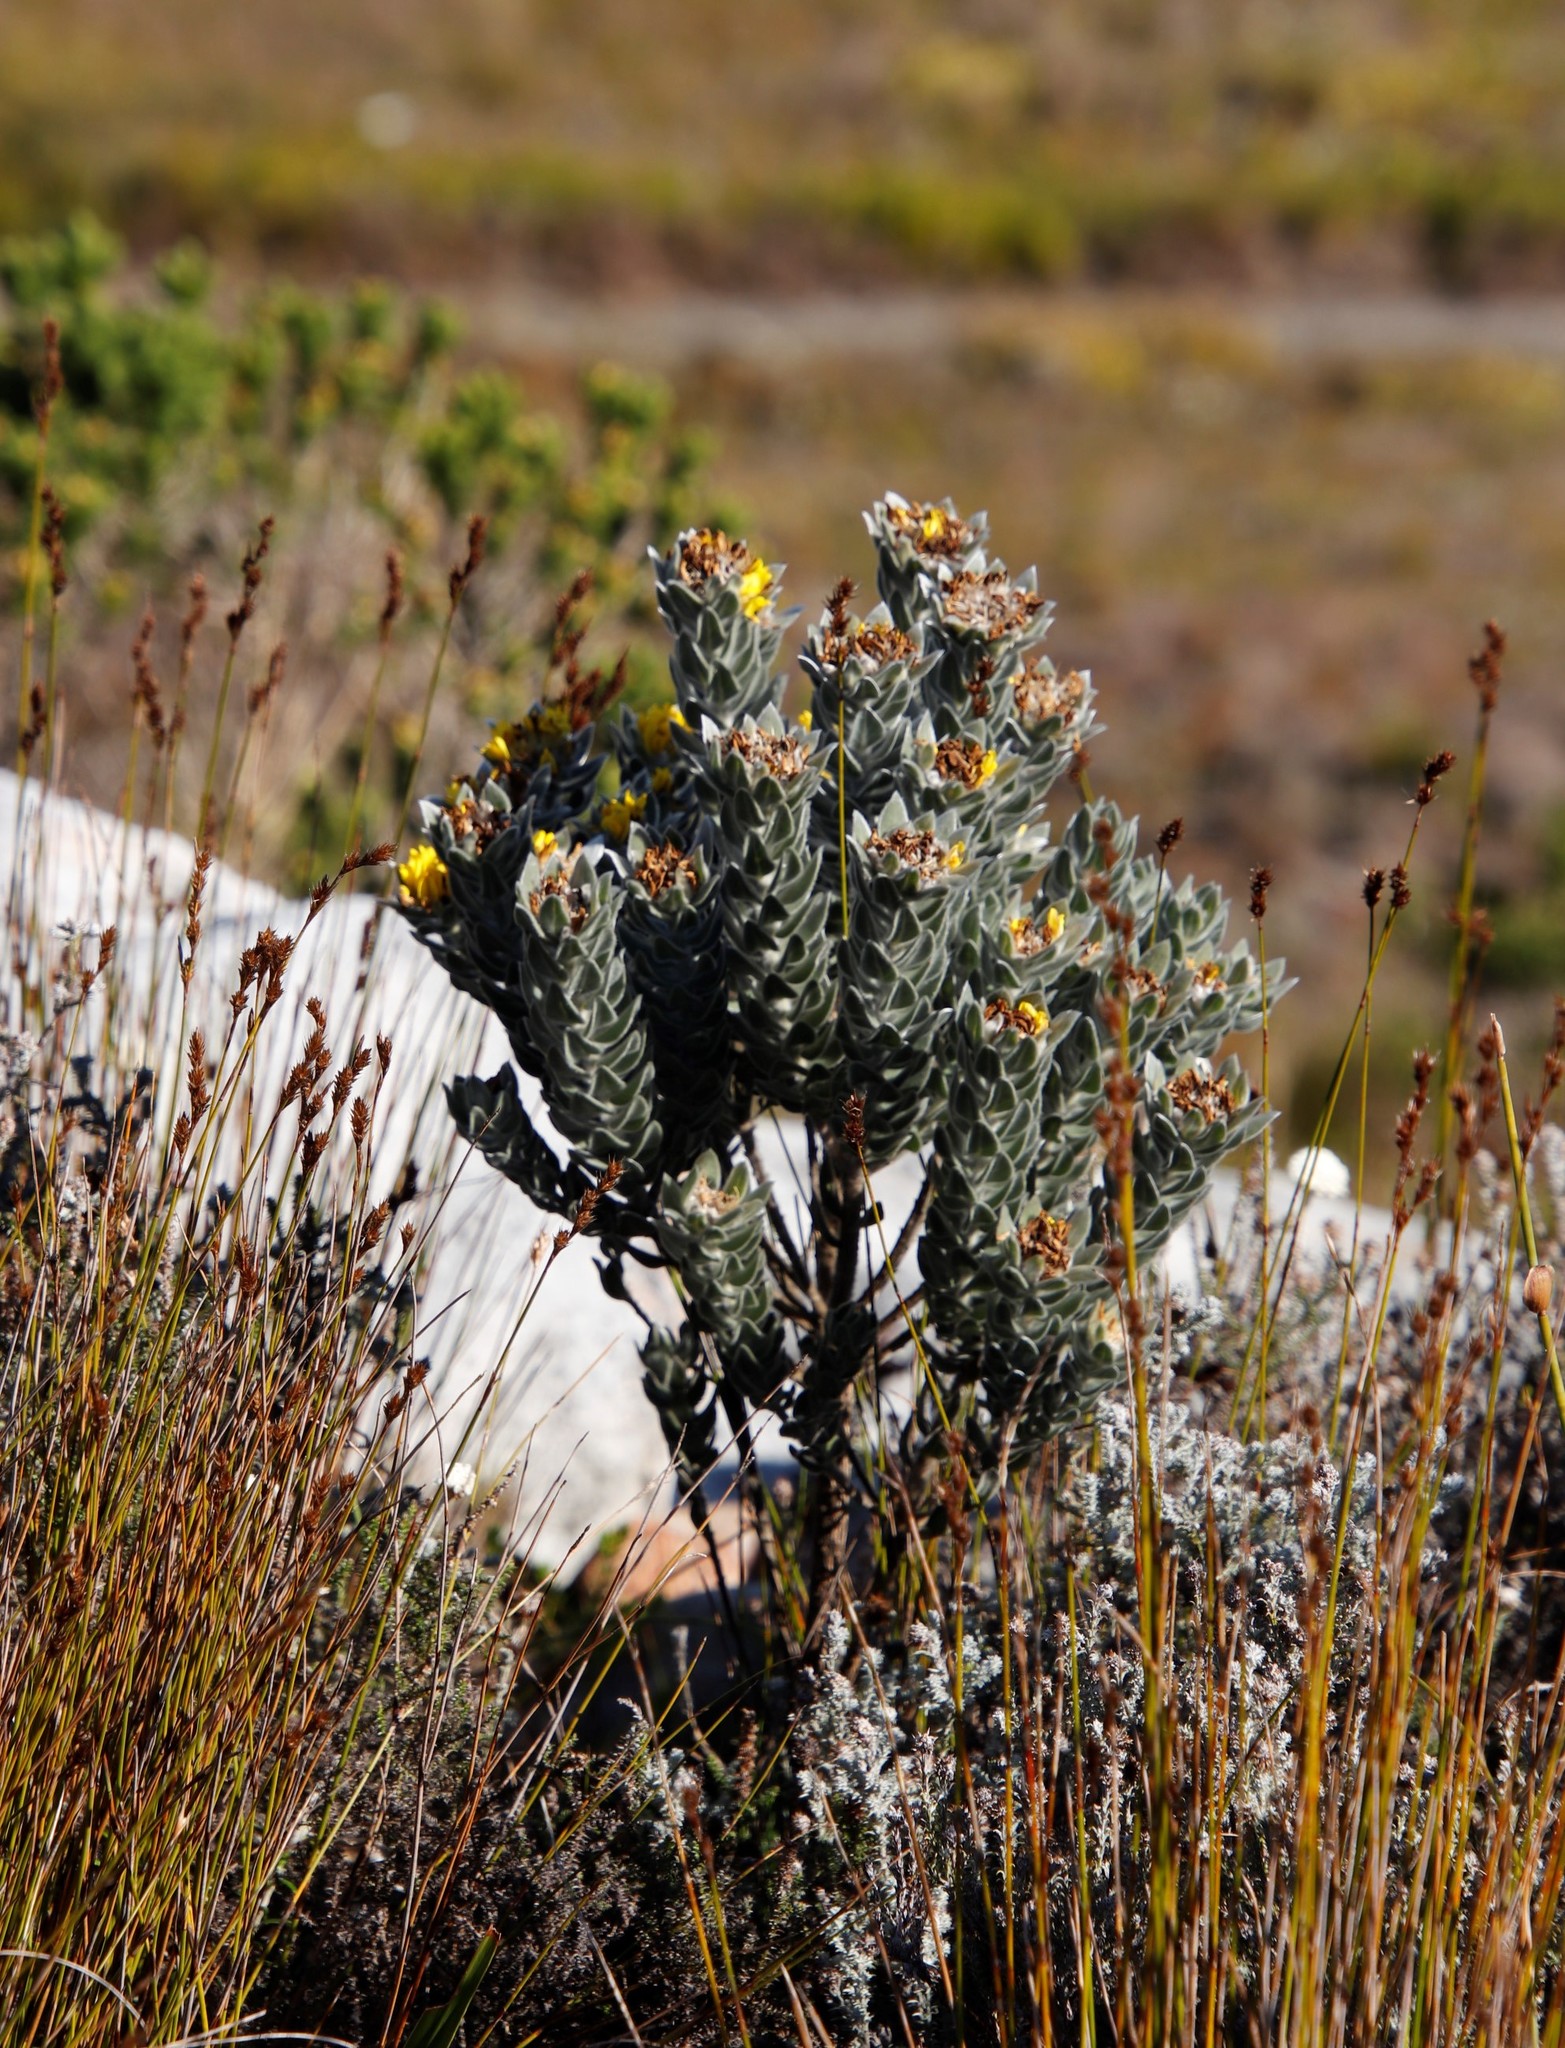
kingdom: Plantae
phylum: Tracheophyta
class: Magnoliopsida
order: Fabales
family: Fabaceae
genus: Xiphotheca
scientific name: Xiphotheca fruticosa
